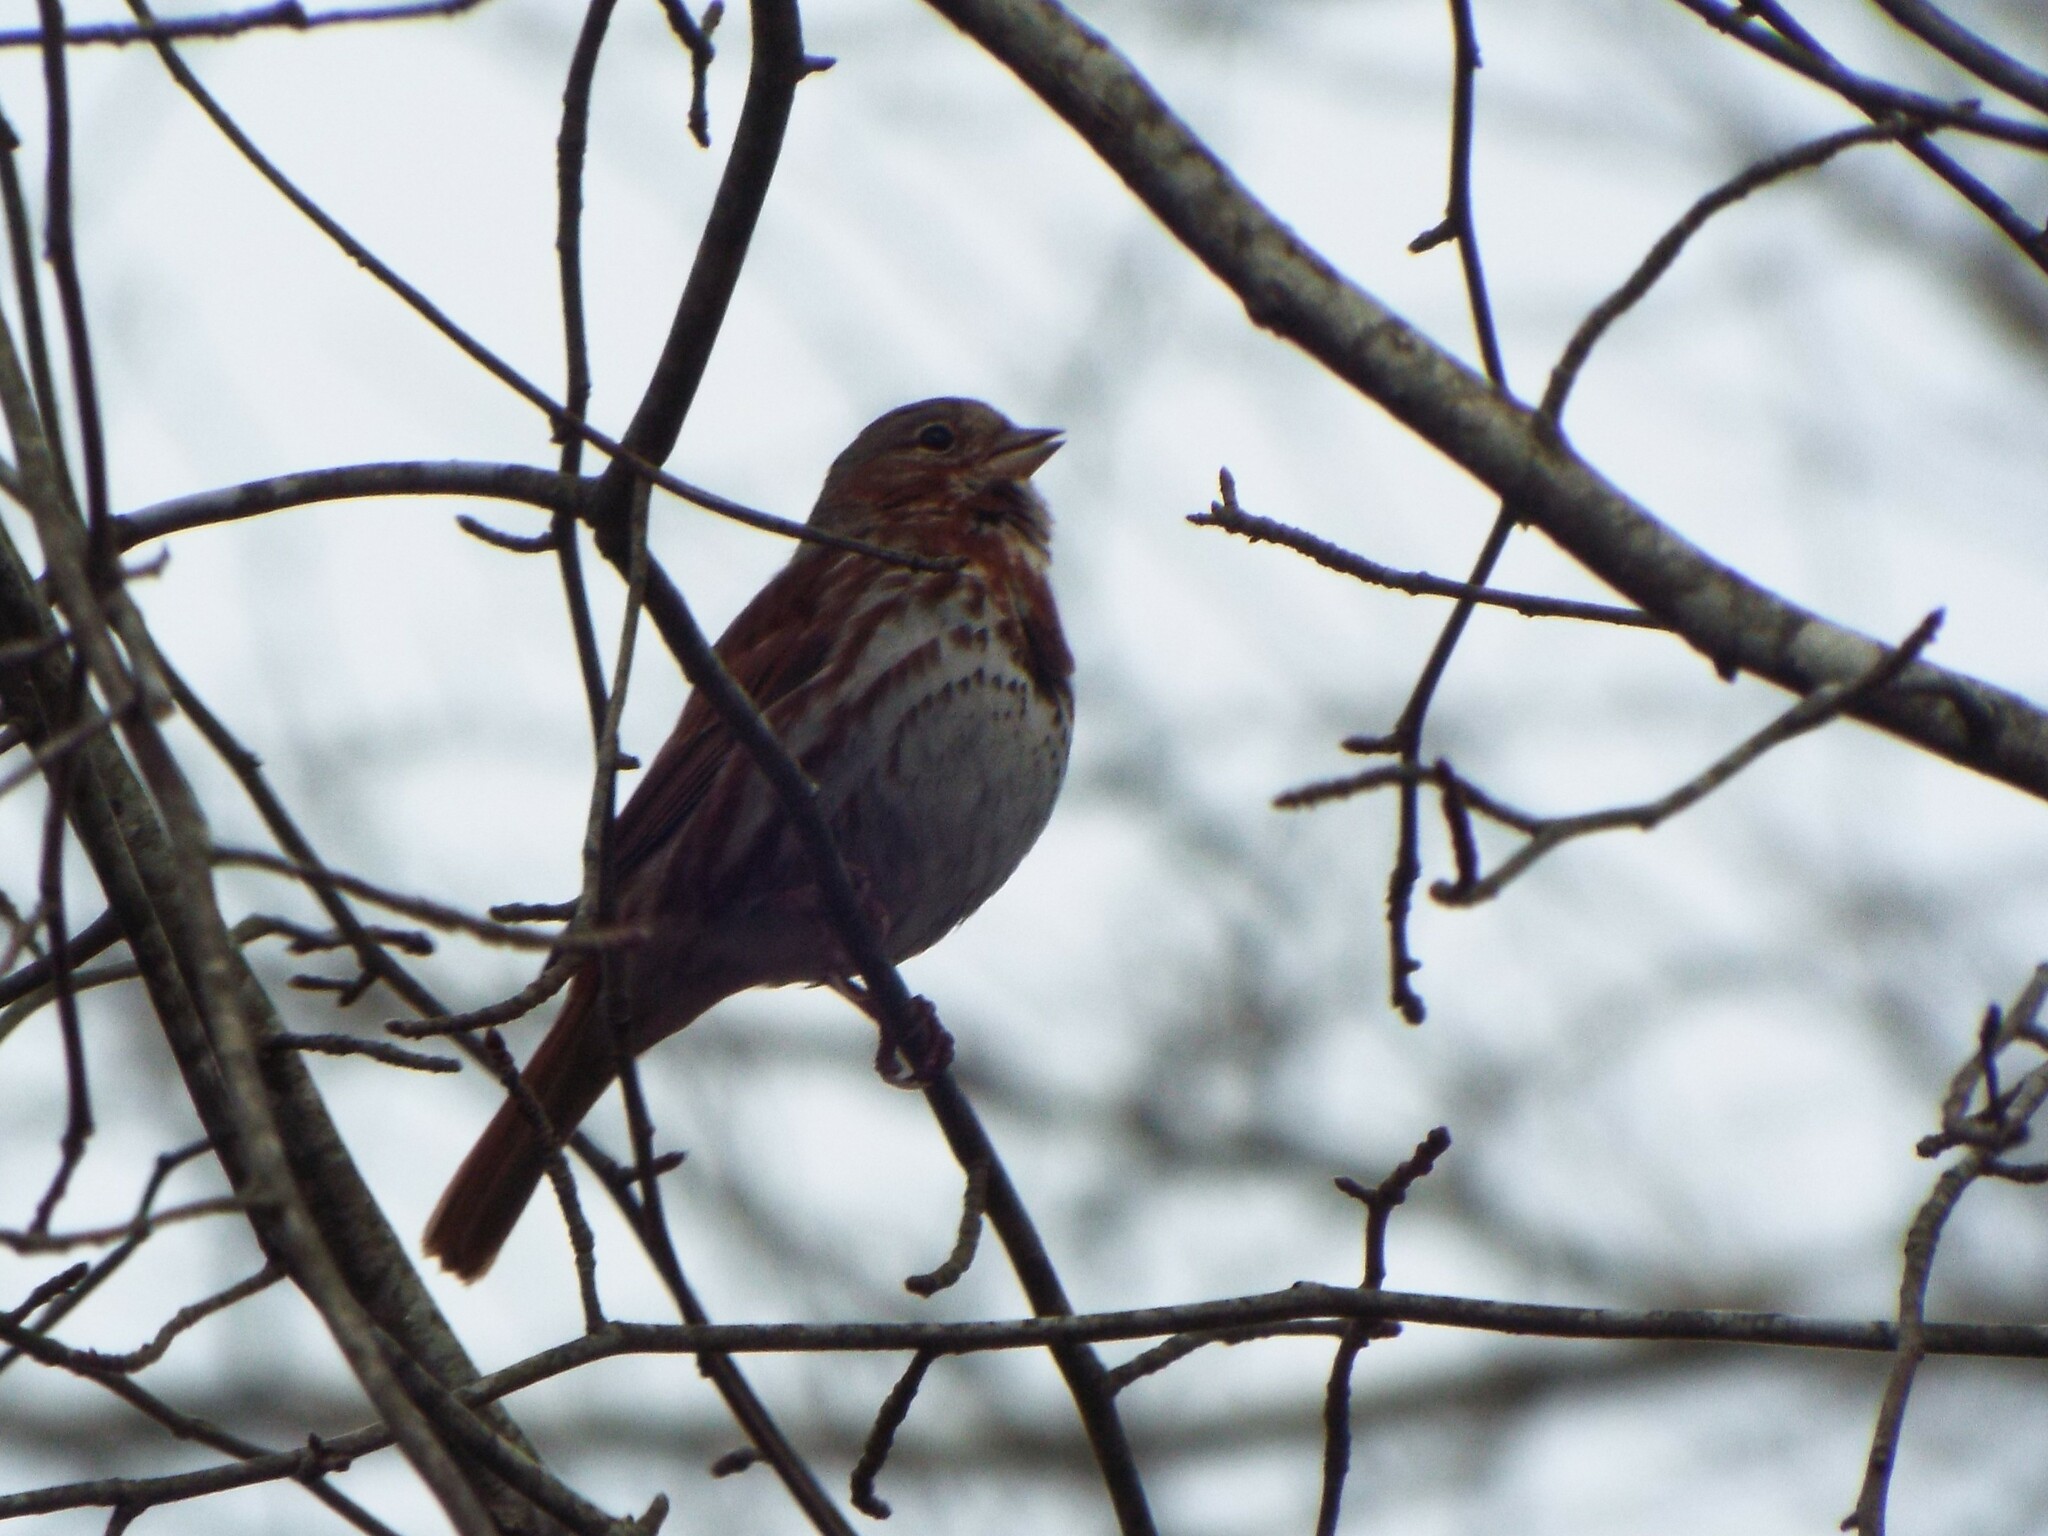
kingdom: Animalia
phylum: Chordata
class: Aves
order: Passeriformes
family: Passerellidae
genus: Passerella
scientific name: Passerella iliaca
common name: Fox sparrow
